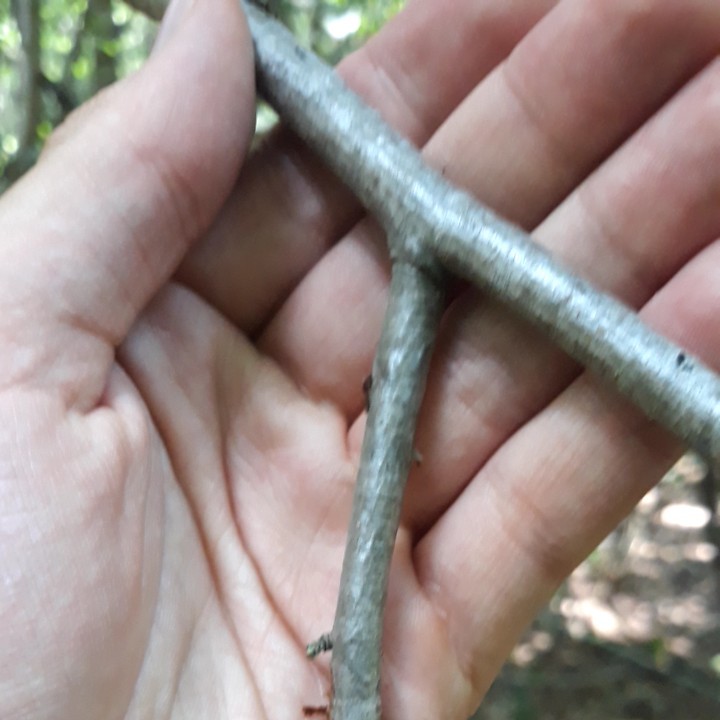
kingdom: Plantae
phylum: Tracheophyta
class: Magnoliopsida
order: Rosales
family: Rosaceae
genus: Sorbus
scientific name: Sorbus aucuparia
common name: Rowan
